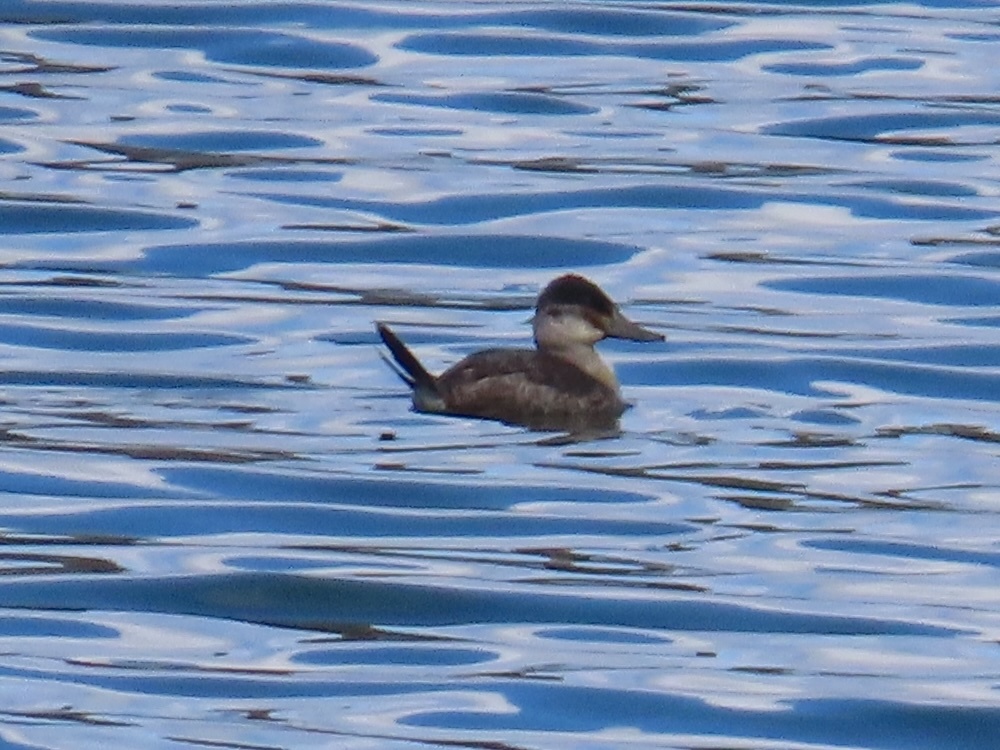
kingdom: Animalia
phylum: Chordata
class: Aves
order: Anseriformes
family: Anatidae
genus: Oxyura
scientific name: Oxyura jamaicensis
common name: Ruddy duck
